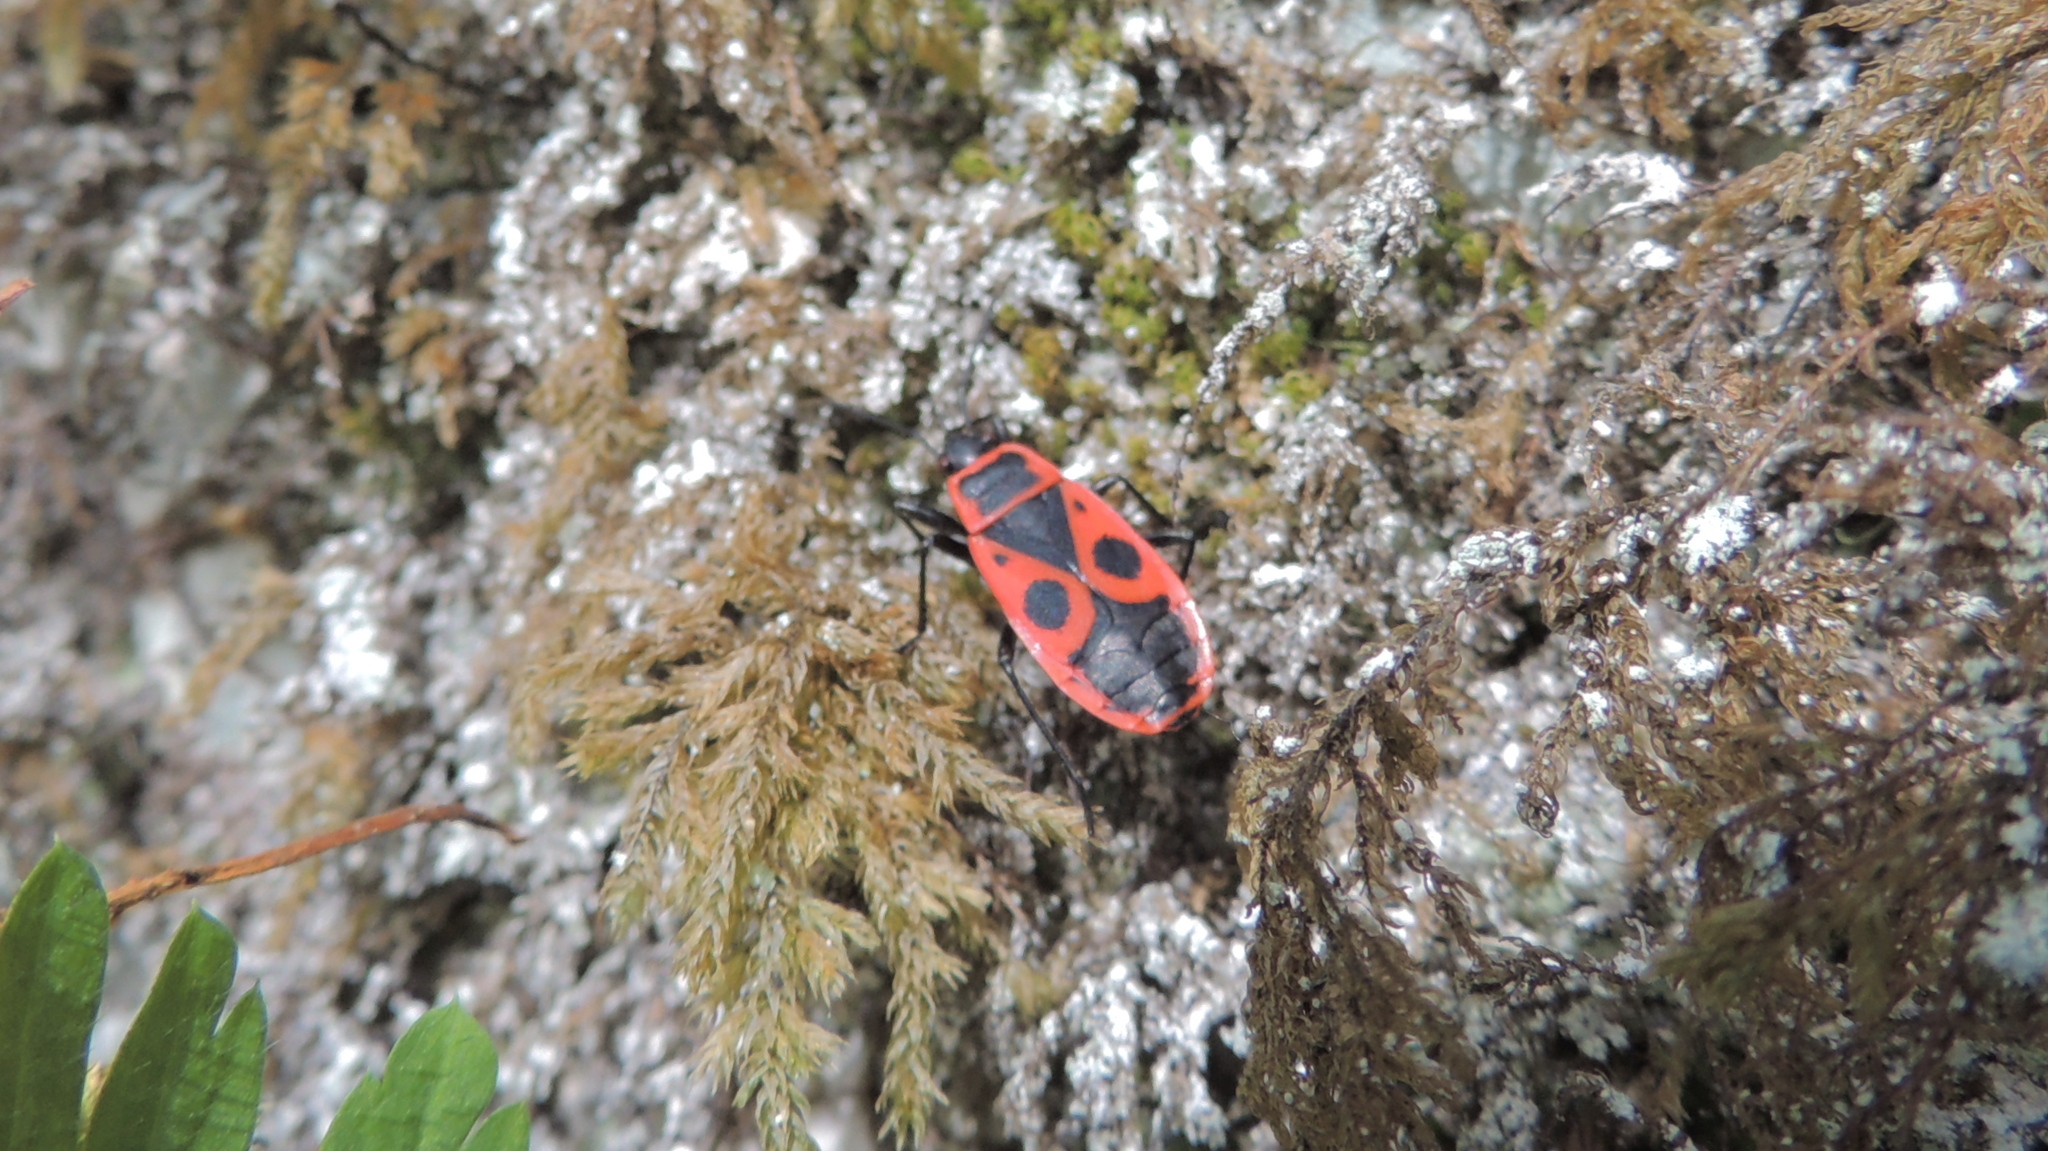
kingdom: Animalia
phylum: Arthropoda
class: Insecta
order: Hemiptera
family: Pyrrhocoridae
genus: Pyrrhocoris
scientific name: Pyrrhocoris apterus
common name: Firebug
